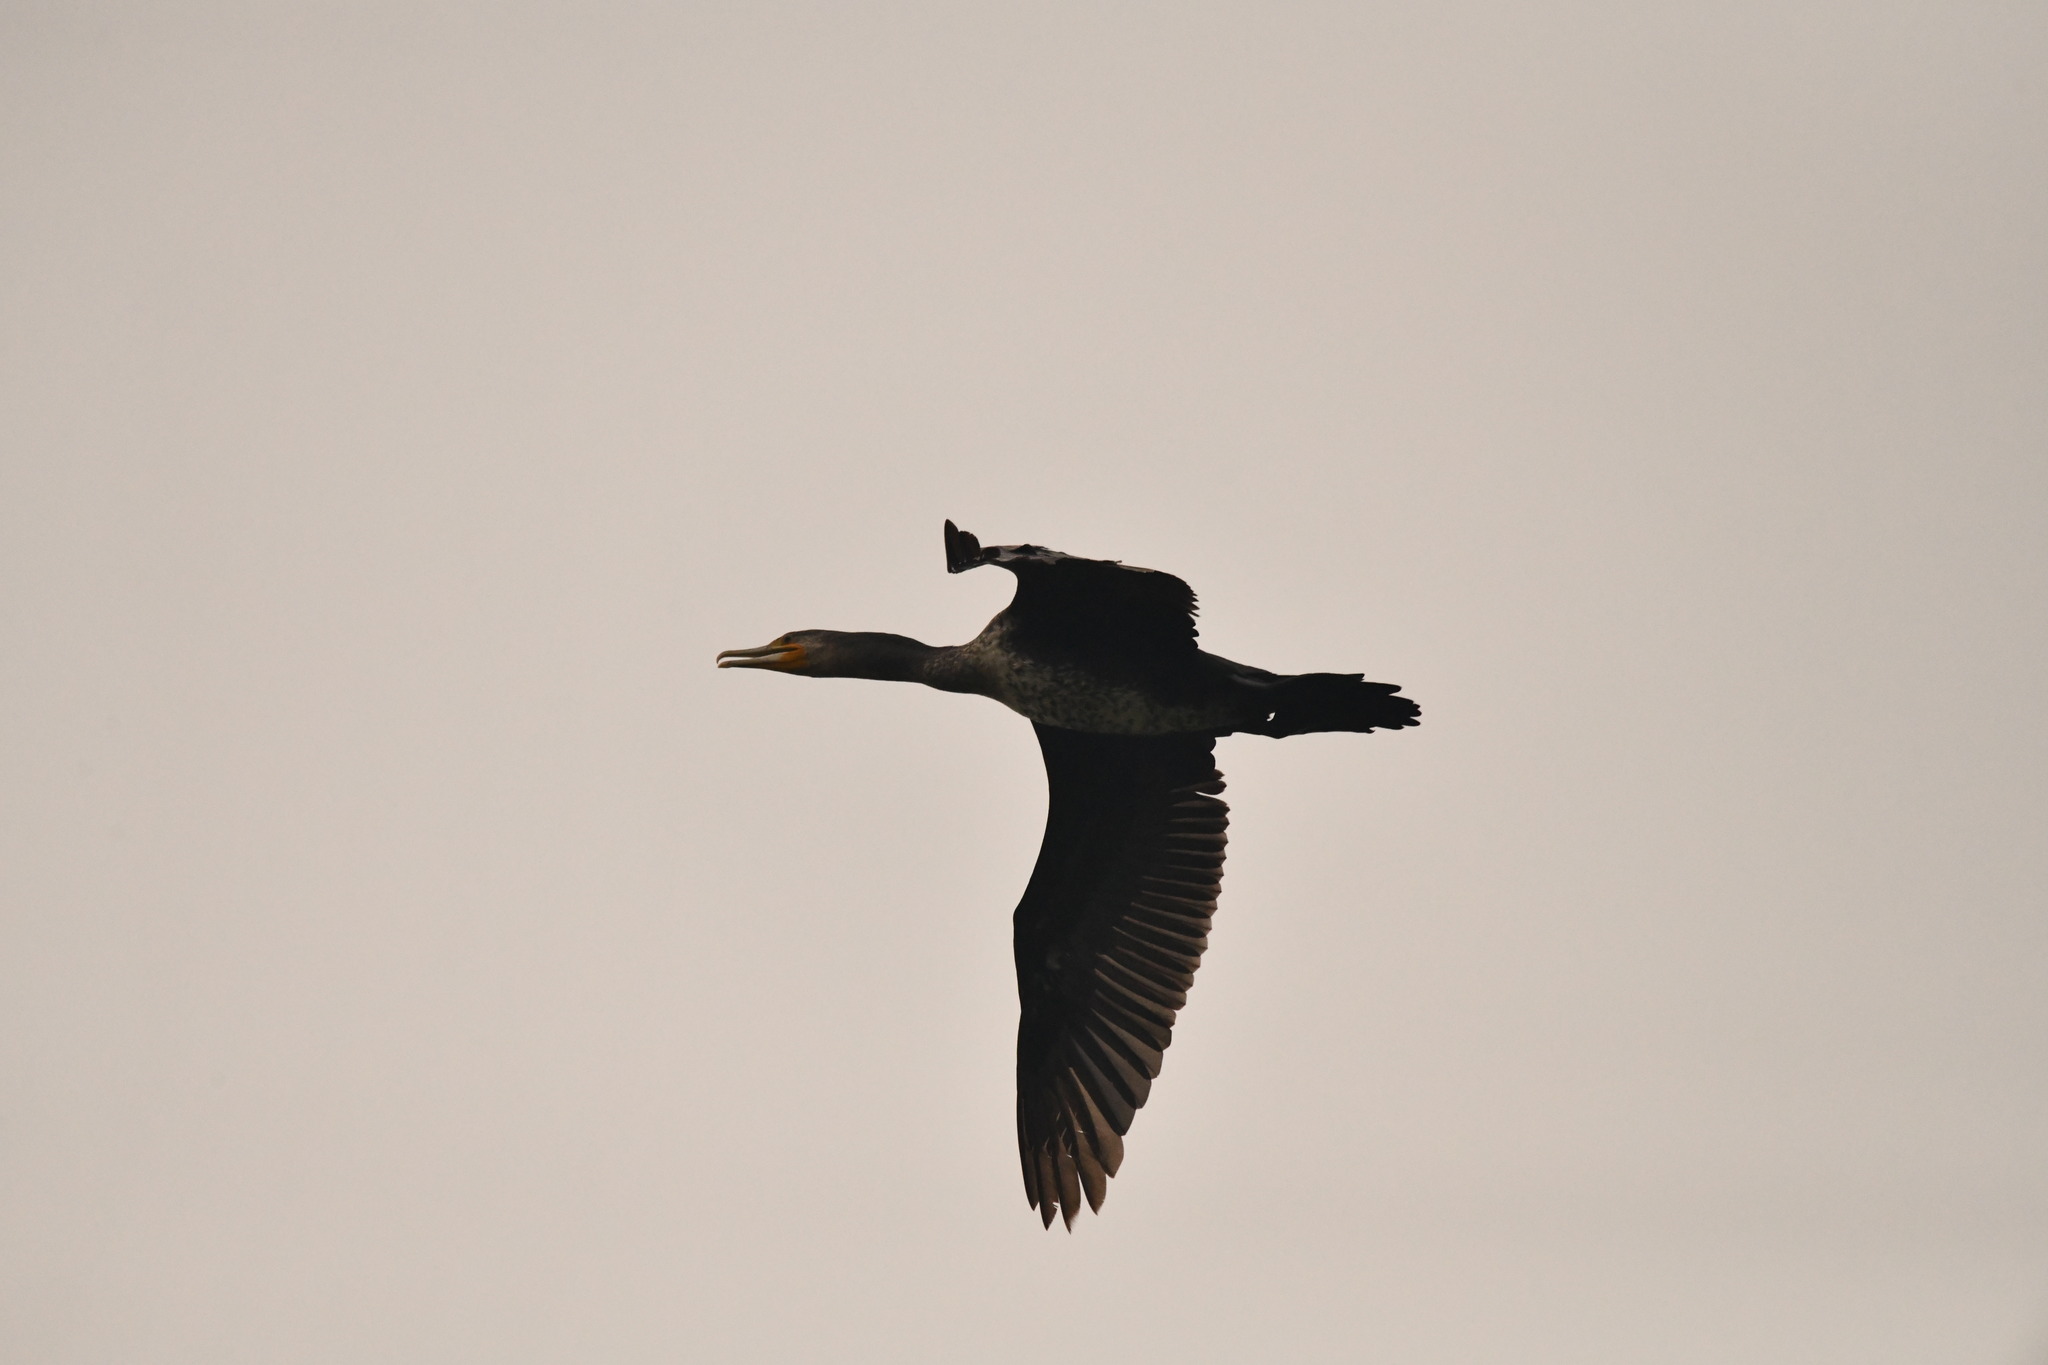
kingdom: Animalia
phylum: Chordata
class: Aves
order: Suliformes
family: Phalacrocoracidae
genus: Phalacrocorax
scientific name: Phalacrocorax carbo
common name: Great cormorant
